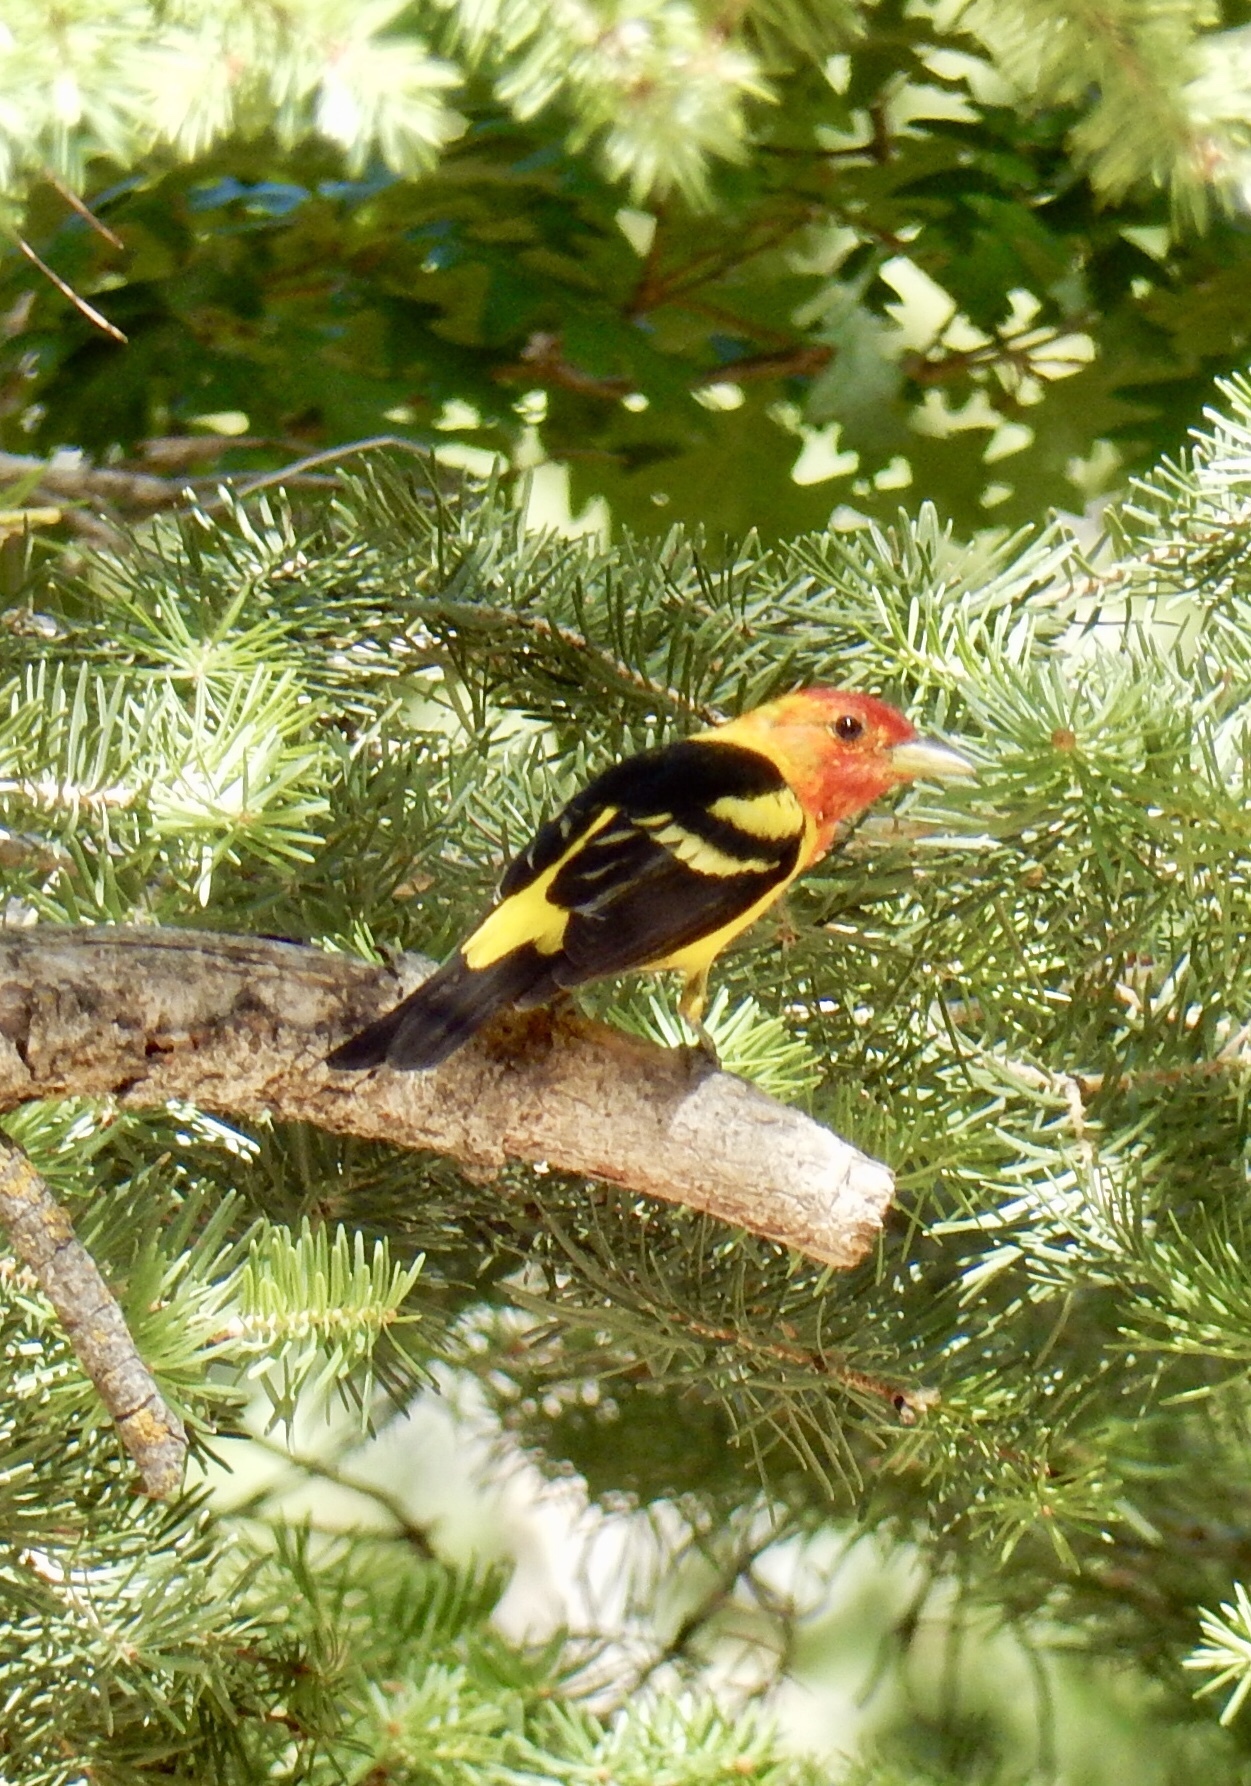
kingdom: Animalia
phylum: Chordata
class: Aves
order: Passeriformes
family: Cardinalidae
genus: Piranga
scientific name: Piranga ludoviciana
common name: Western tanager
